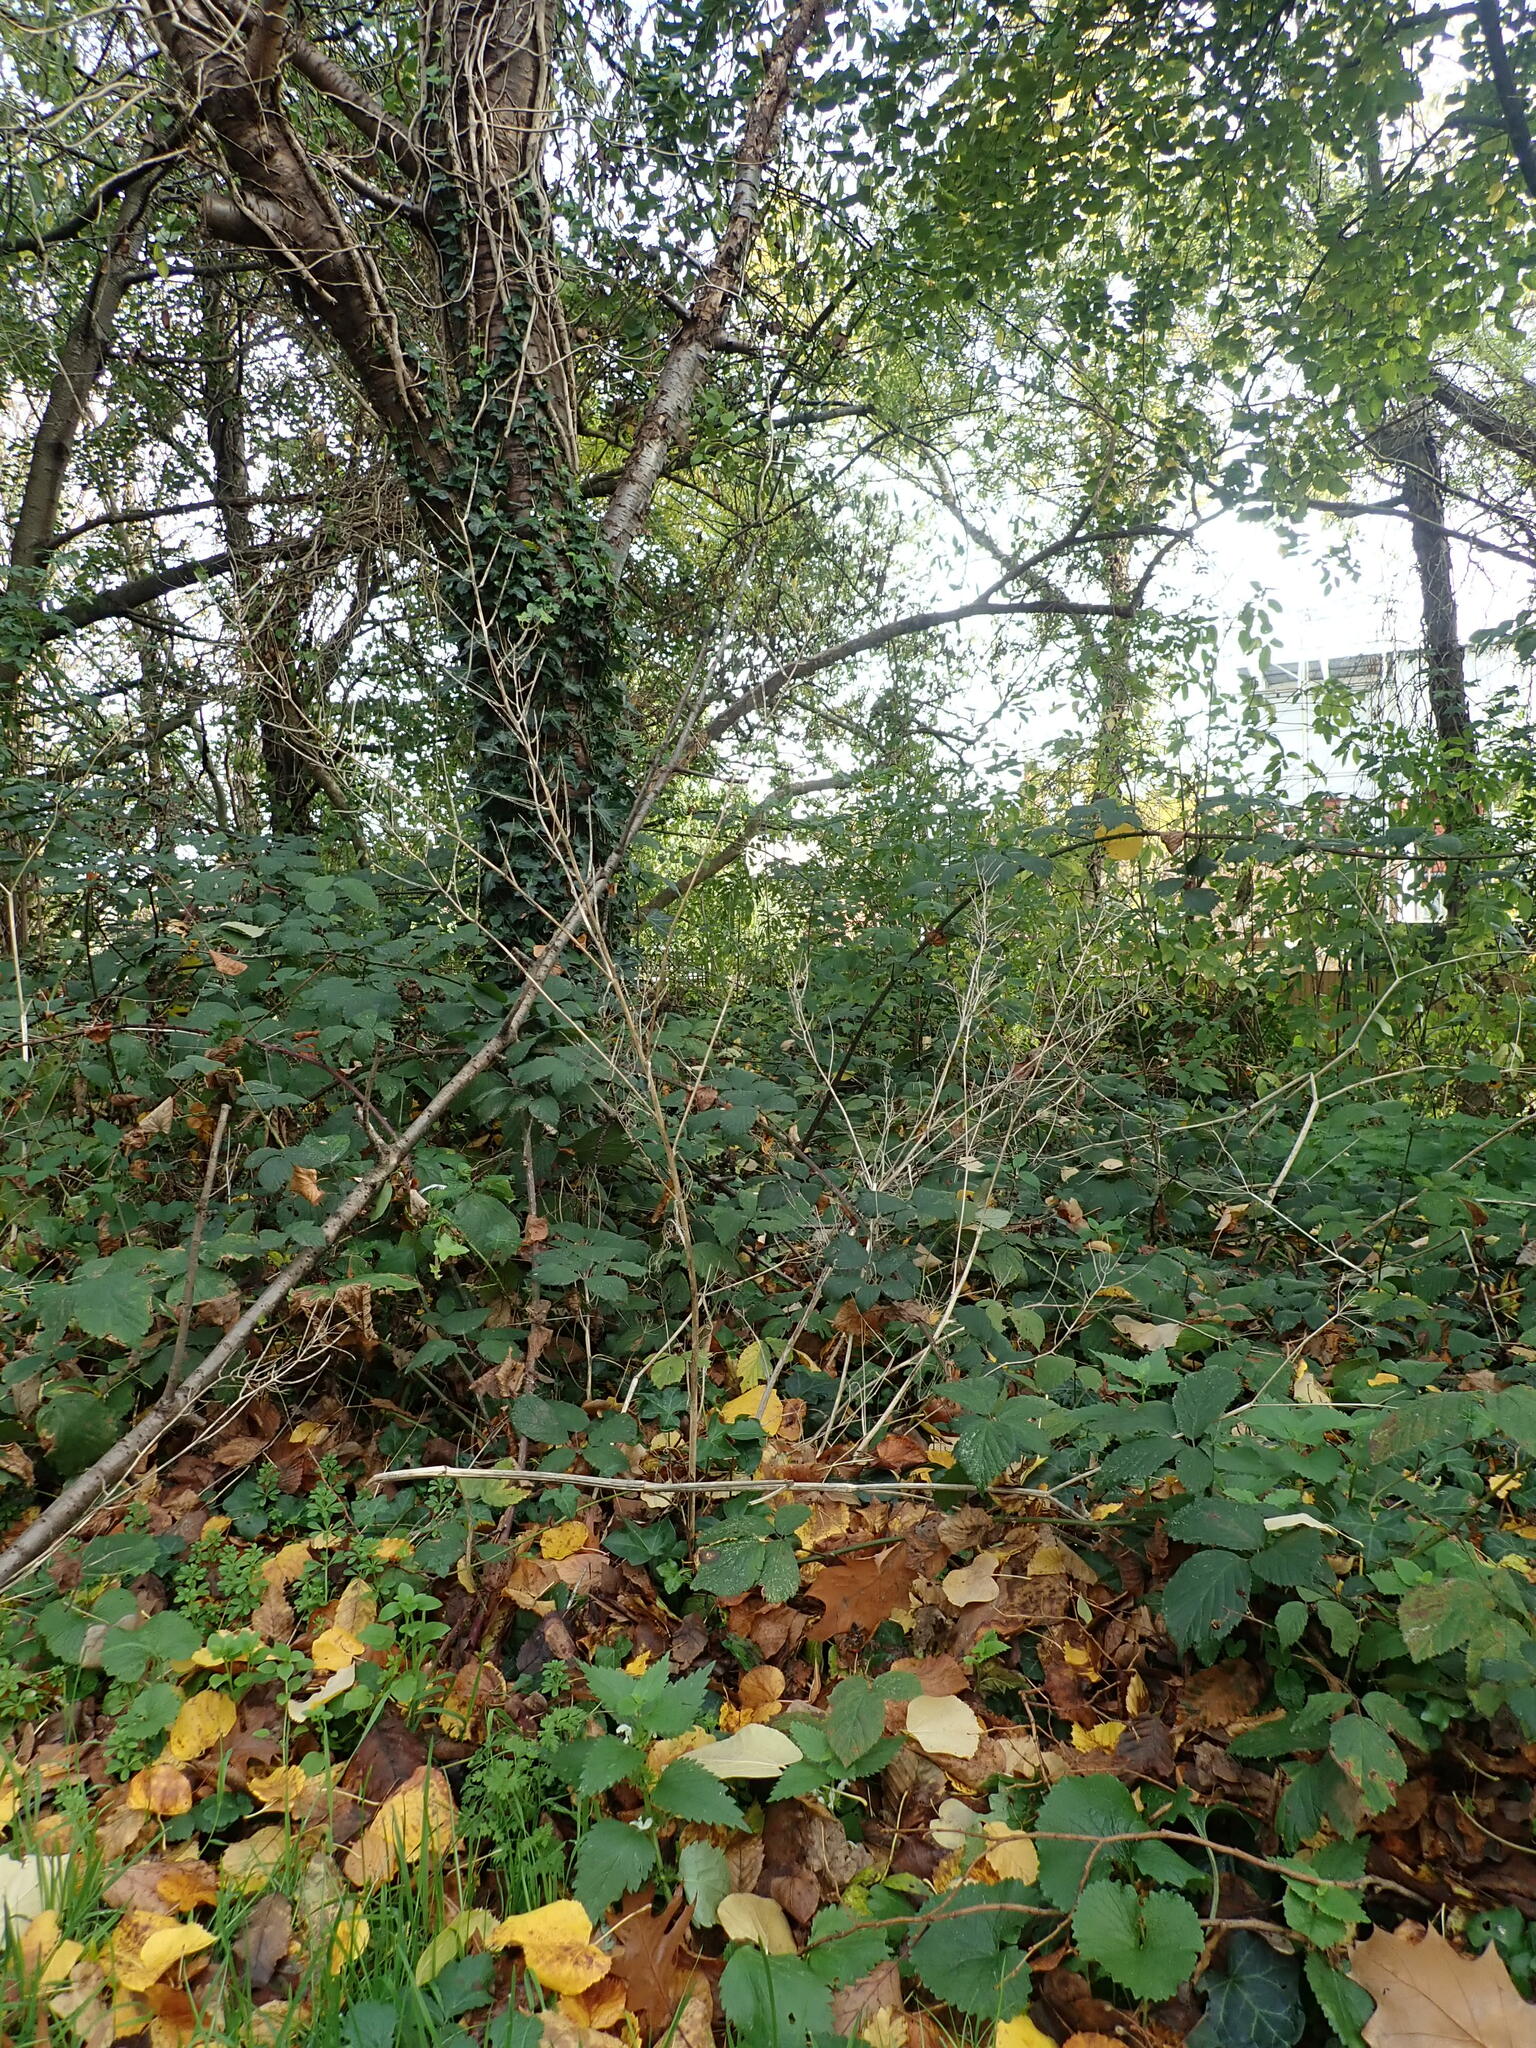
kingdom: Plantae
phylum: Tracheophyta
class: Magnoliopsida
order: Brassicales
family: Brassicaceae
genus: Alliaria
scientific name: Alliaria petiolata
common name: Garlic mustard
